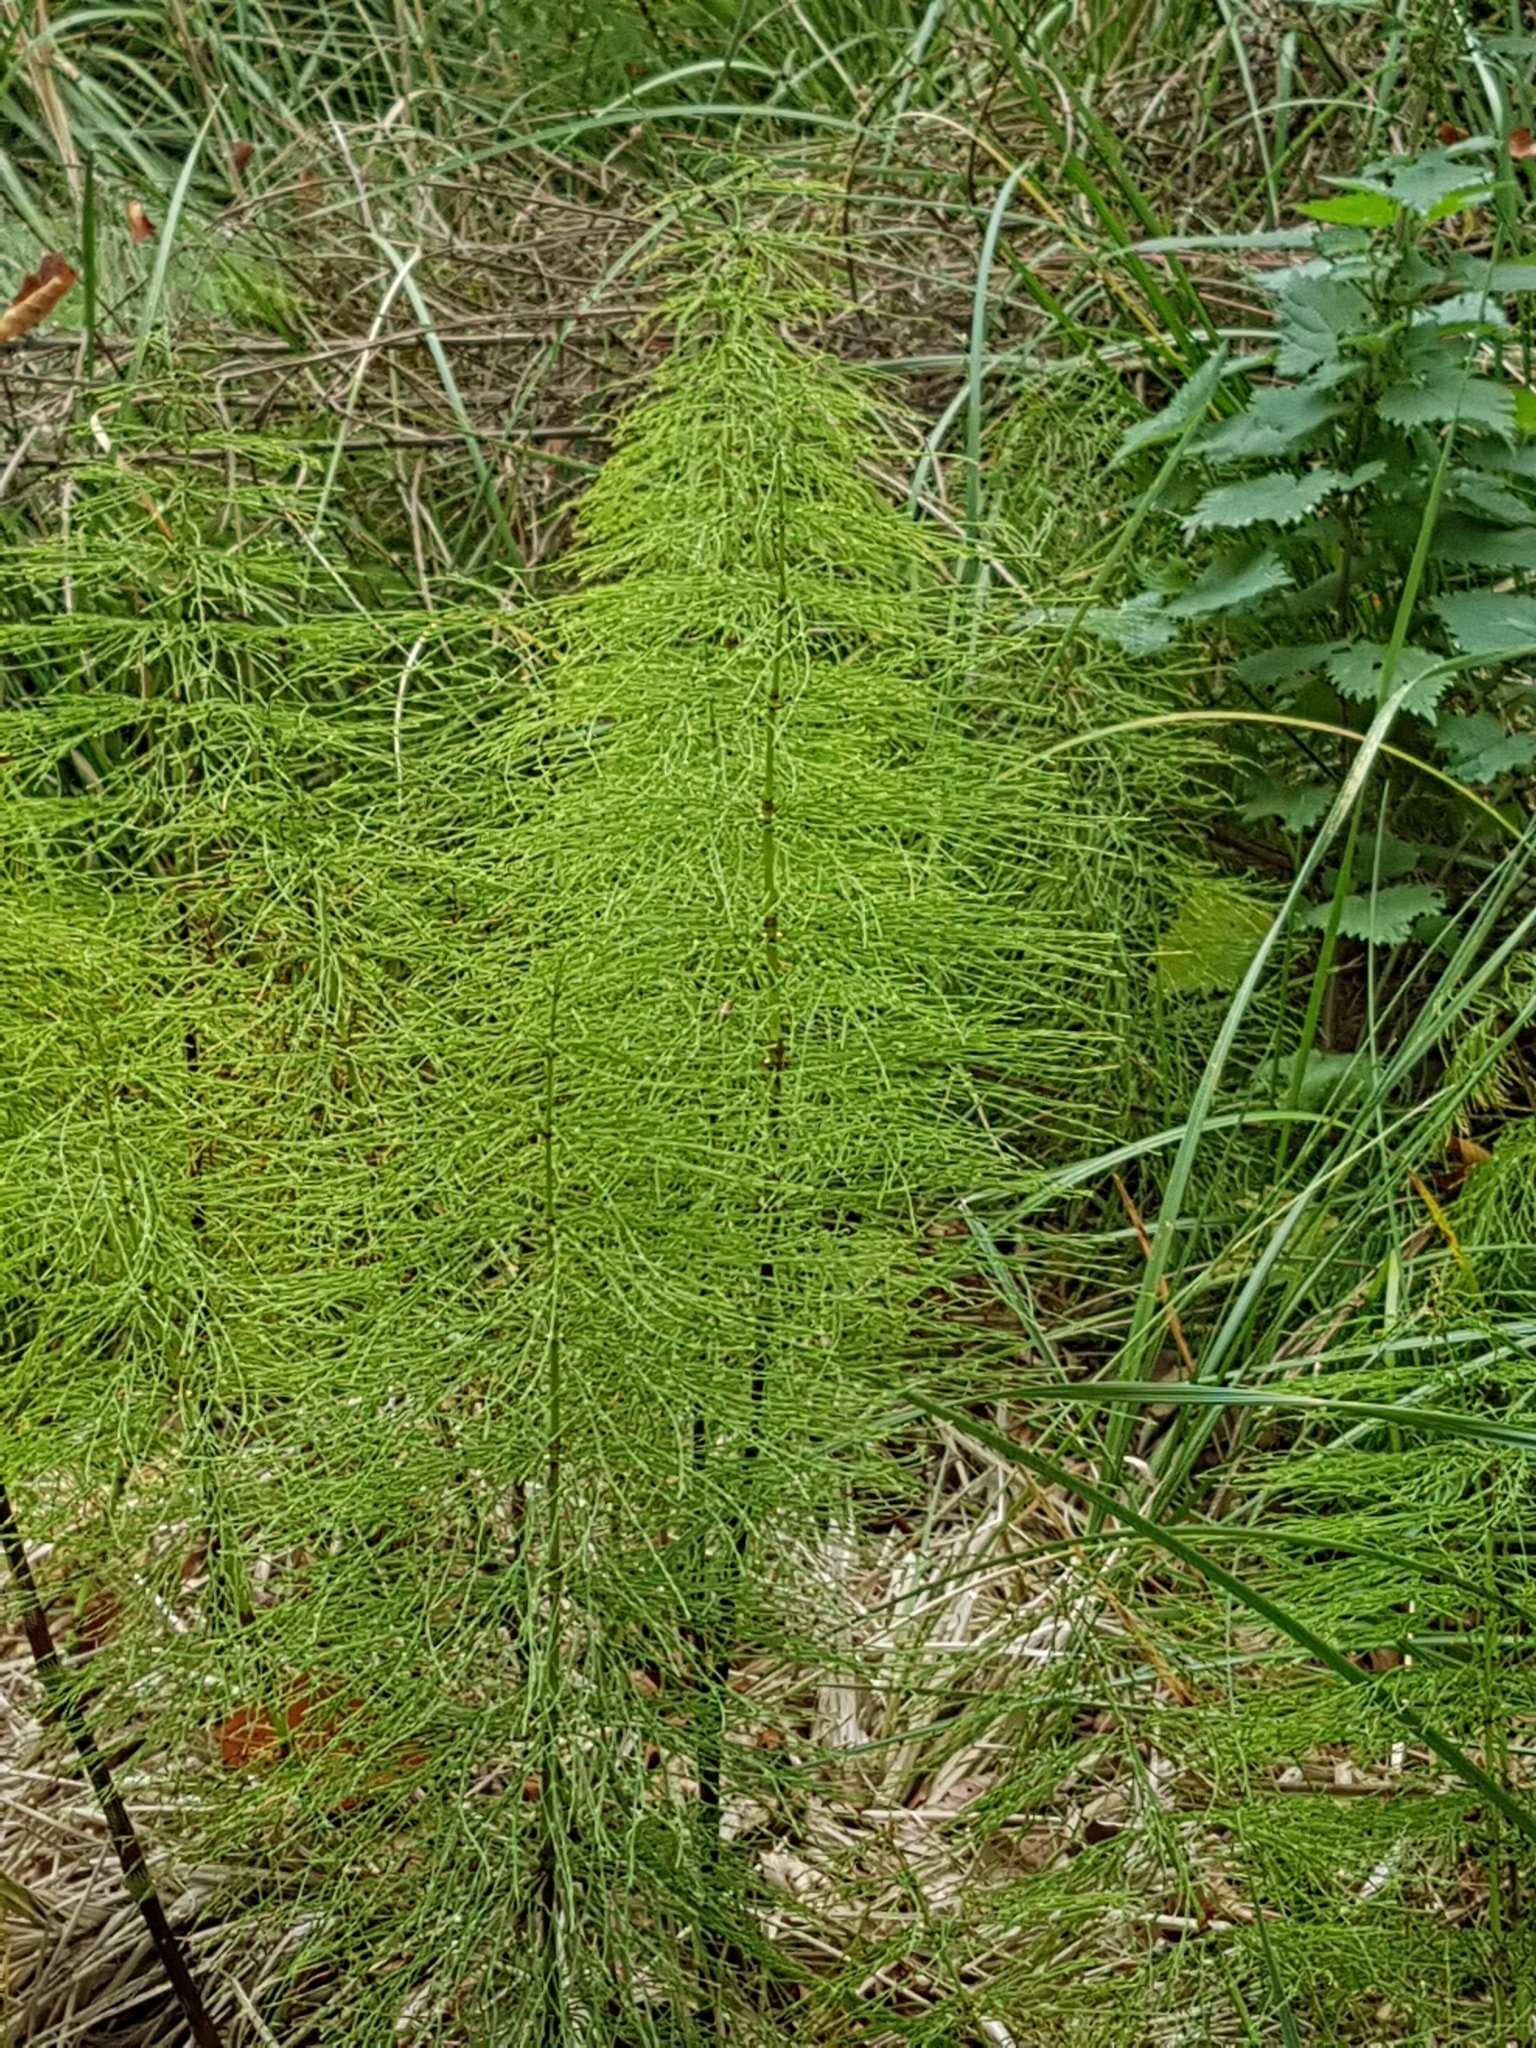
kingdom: Plantae
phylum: Tracheophyta
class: Polypodiopsida
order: Equisetales
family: Equisetaceae
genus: Equisetum
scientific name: Equisetum sylvaticum
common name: Wood horsetail
